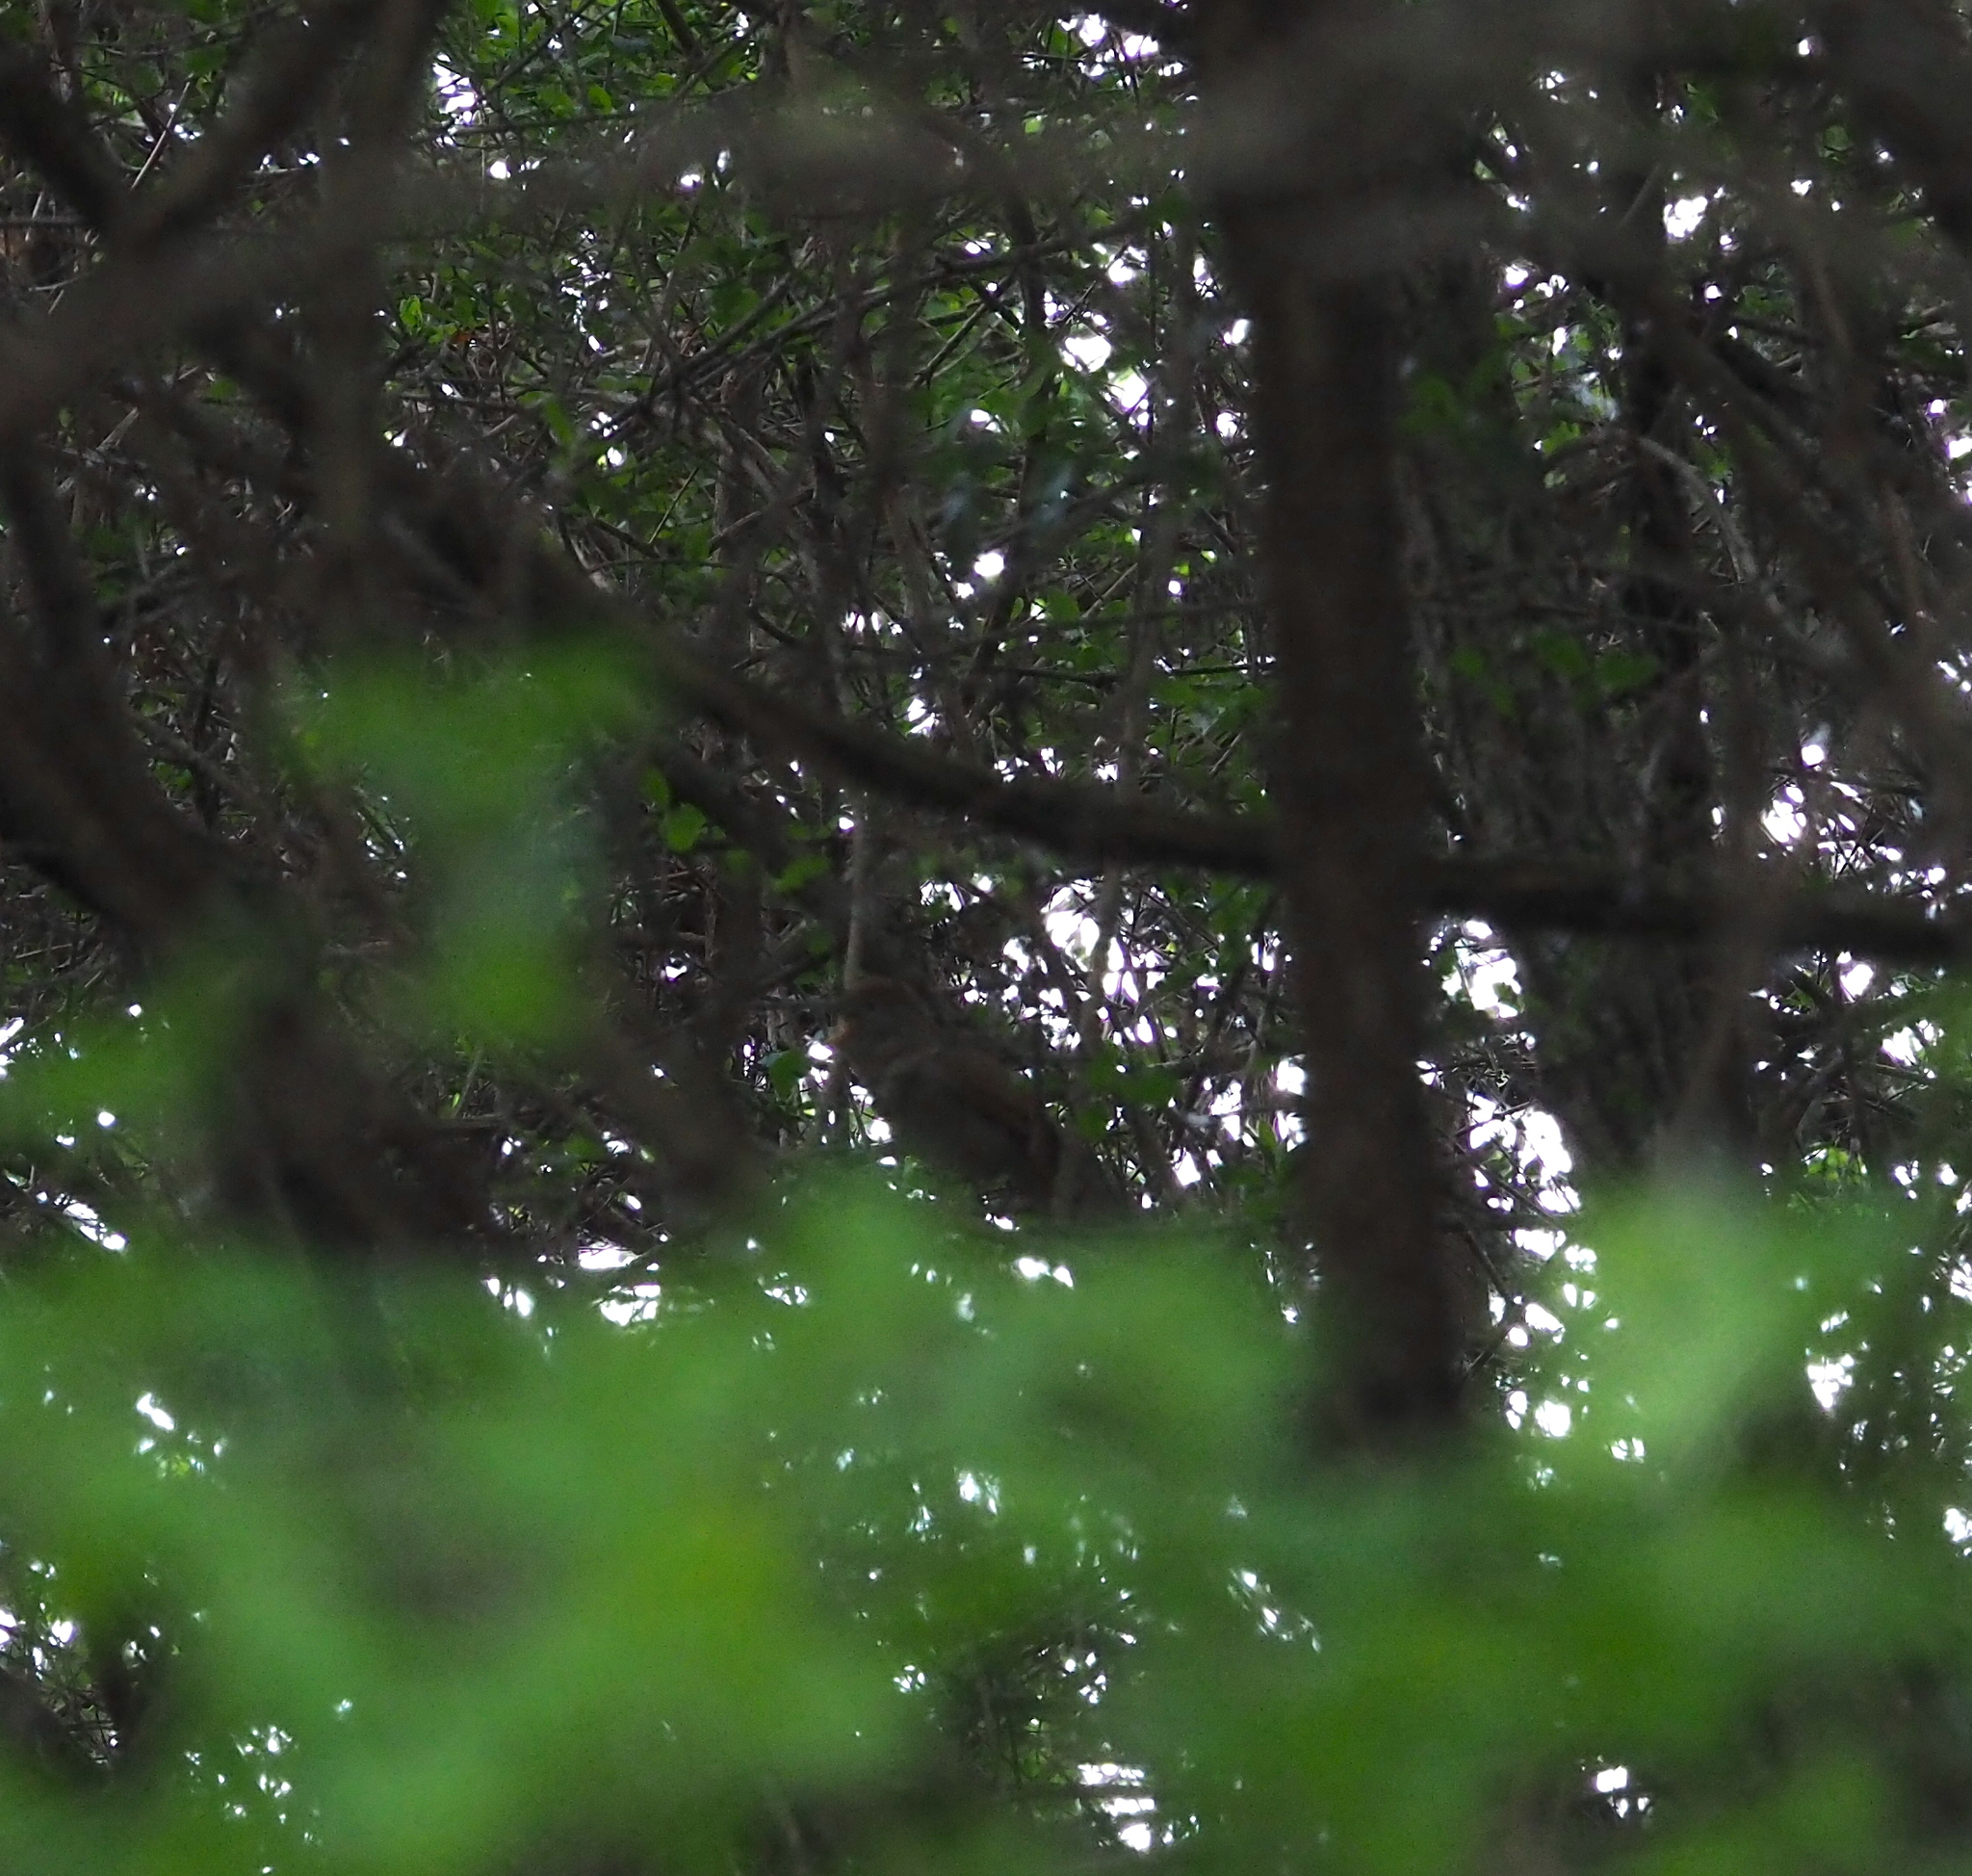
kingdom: Animalia
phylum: Chordata
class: Aves
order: Passeriformes
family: Muscicapidae
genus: Luscinia
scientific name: Luscinia megarhynchos
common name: Common nightingale
